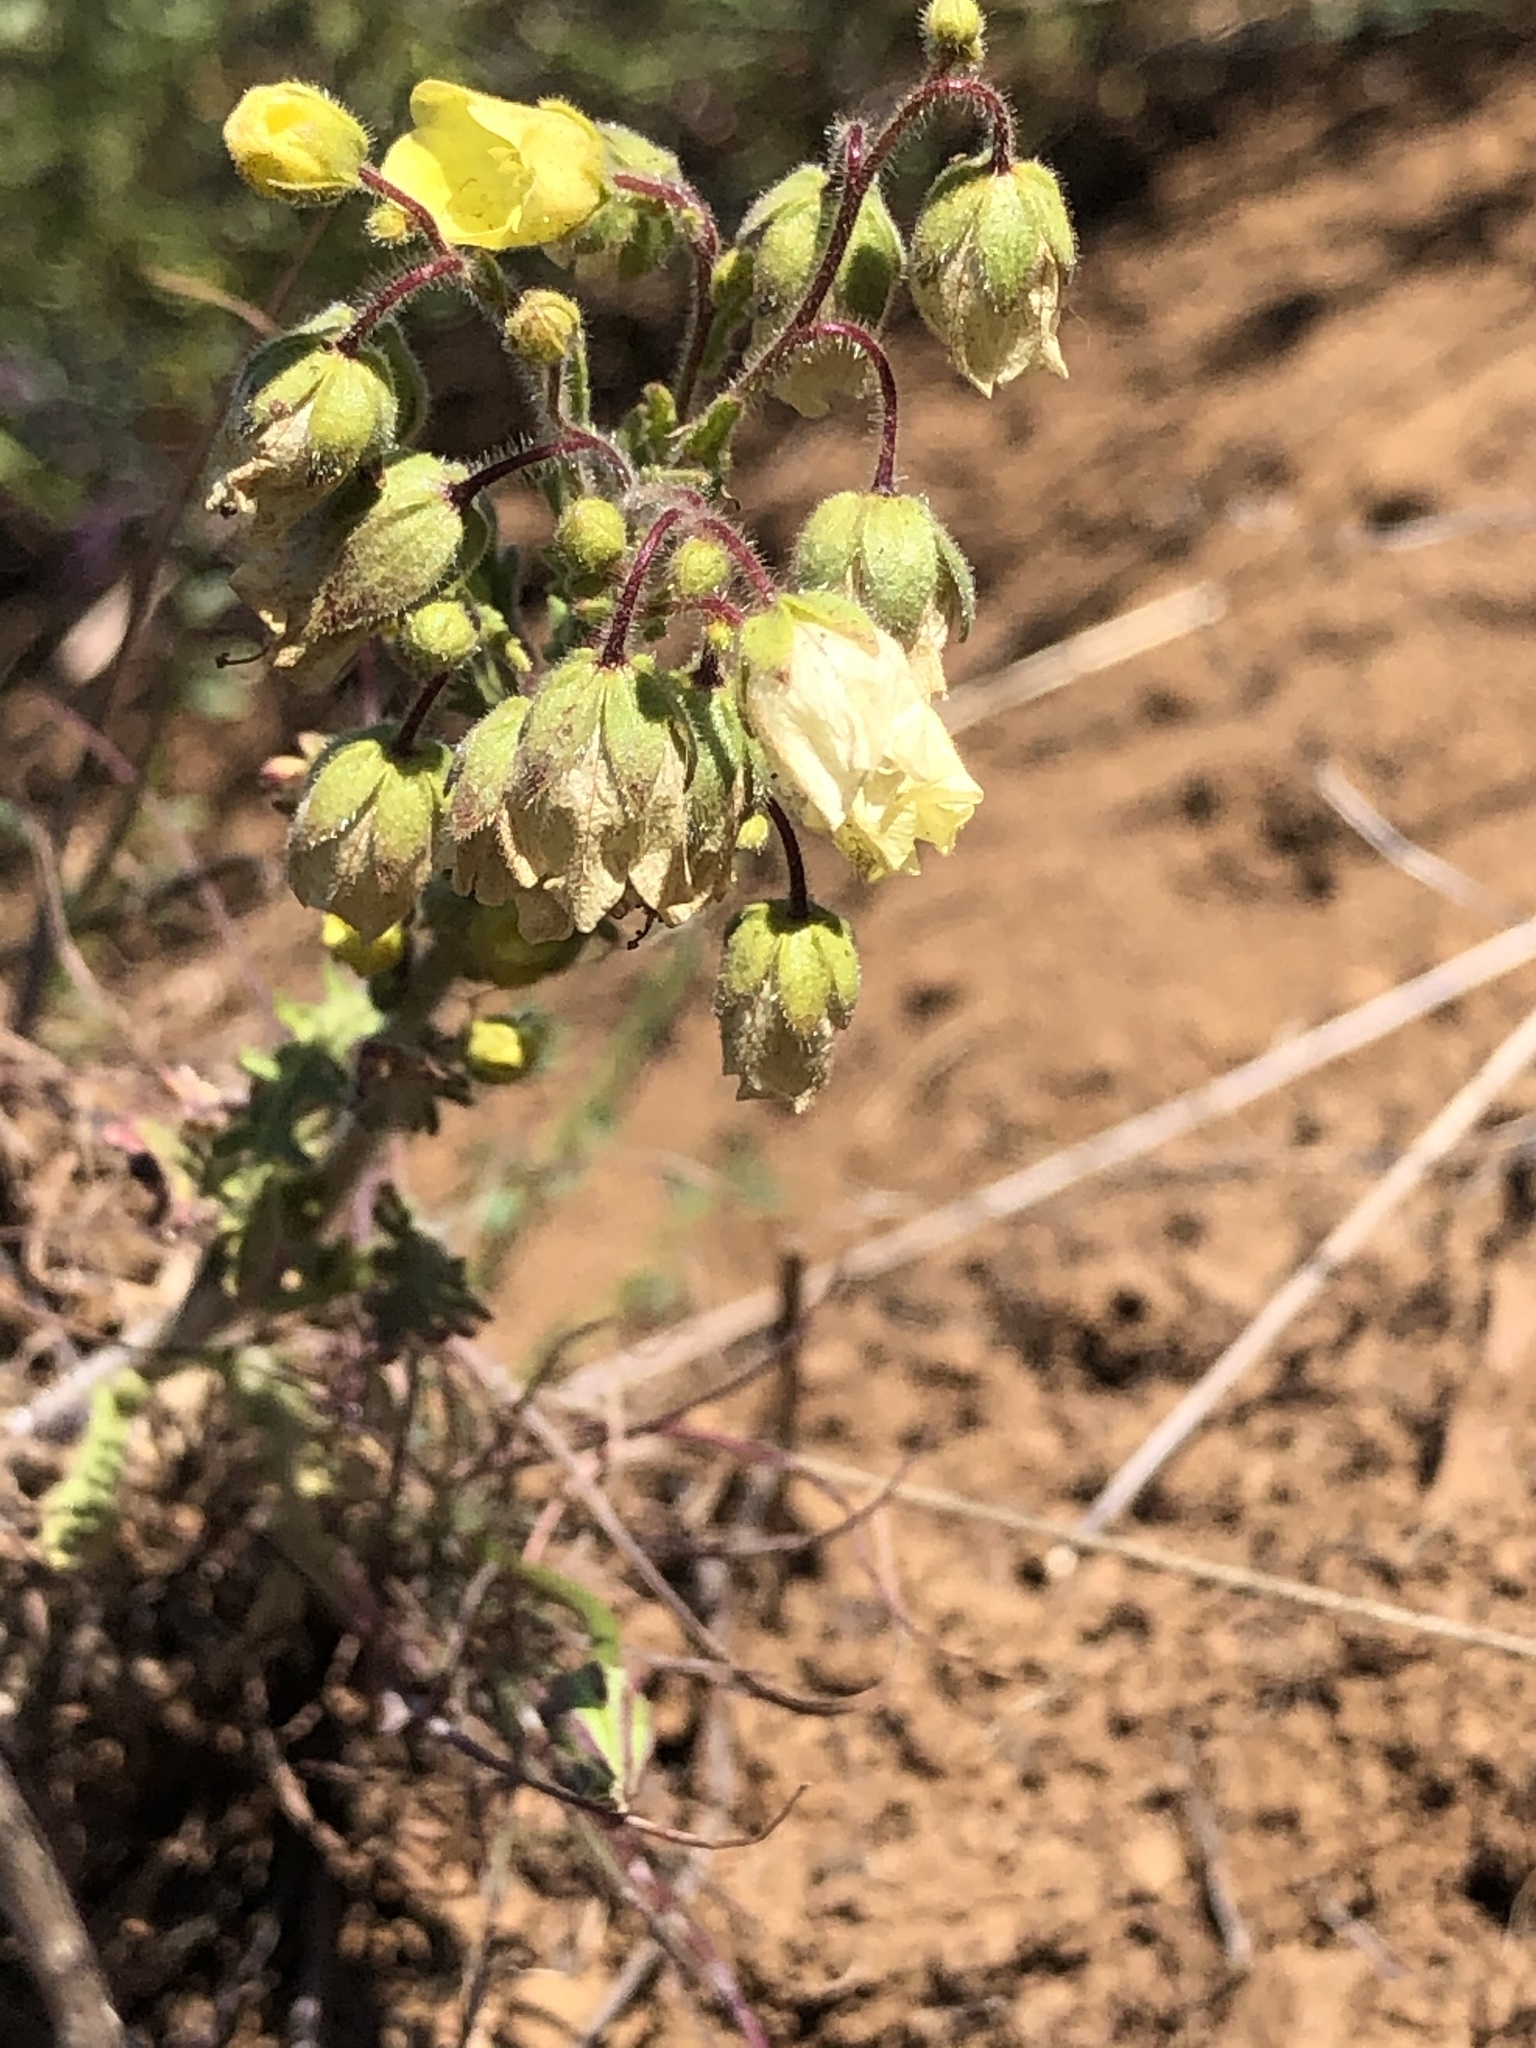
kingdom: Plantae
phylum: Tracheophyta
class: Magnoliopsida
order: Boraginales
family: Hydrophyllaceae
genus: Emmenanthe
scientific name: Emmenanthe penduliflora
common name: Whispering-bells
